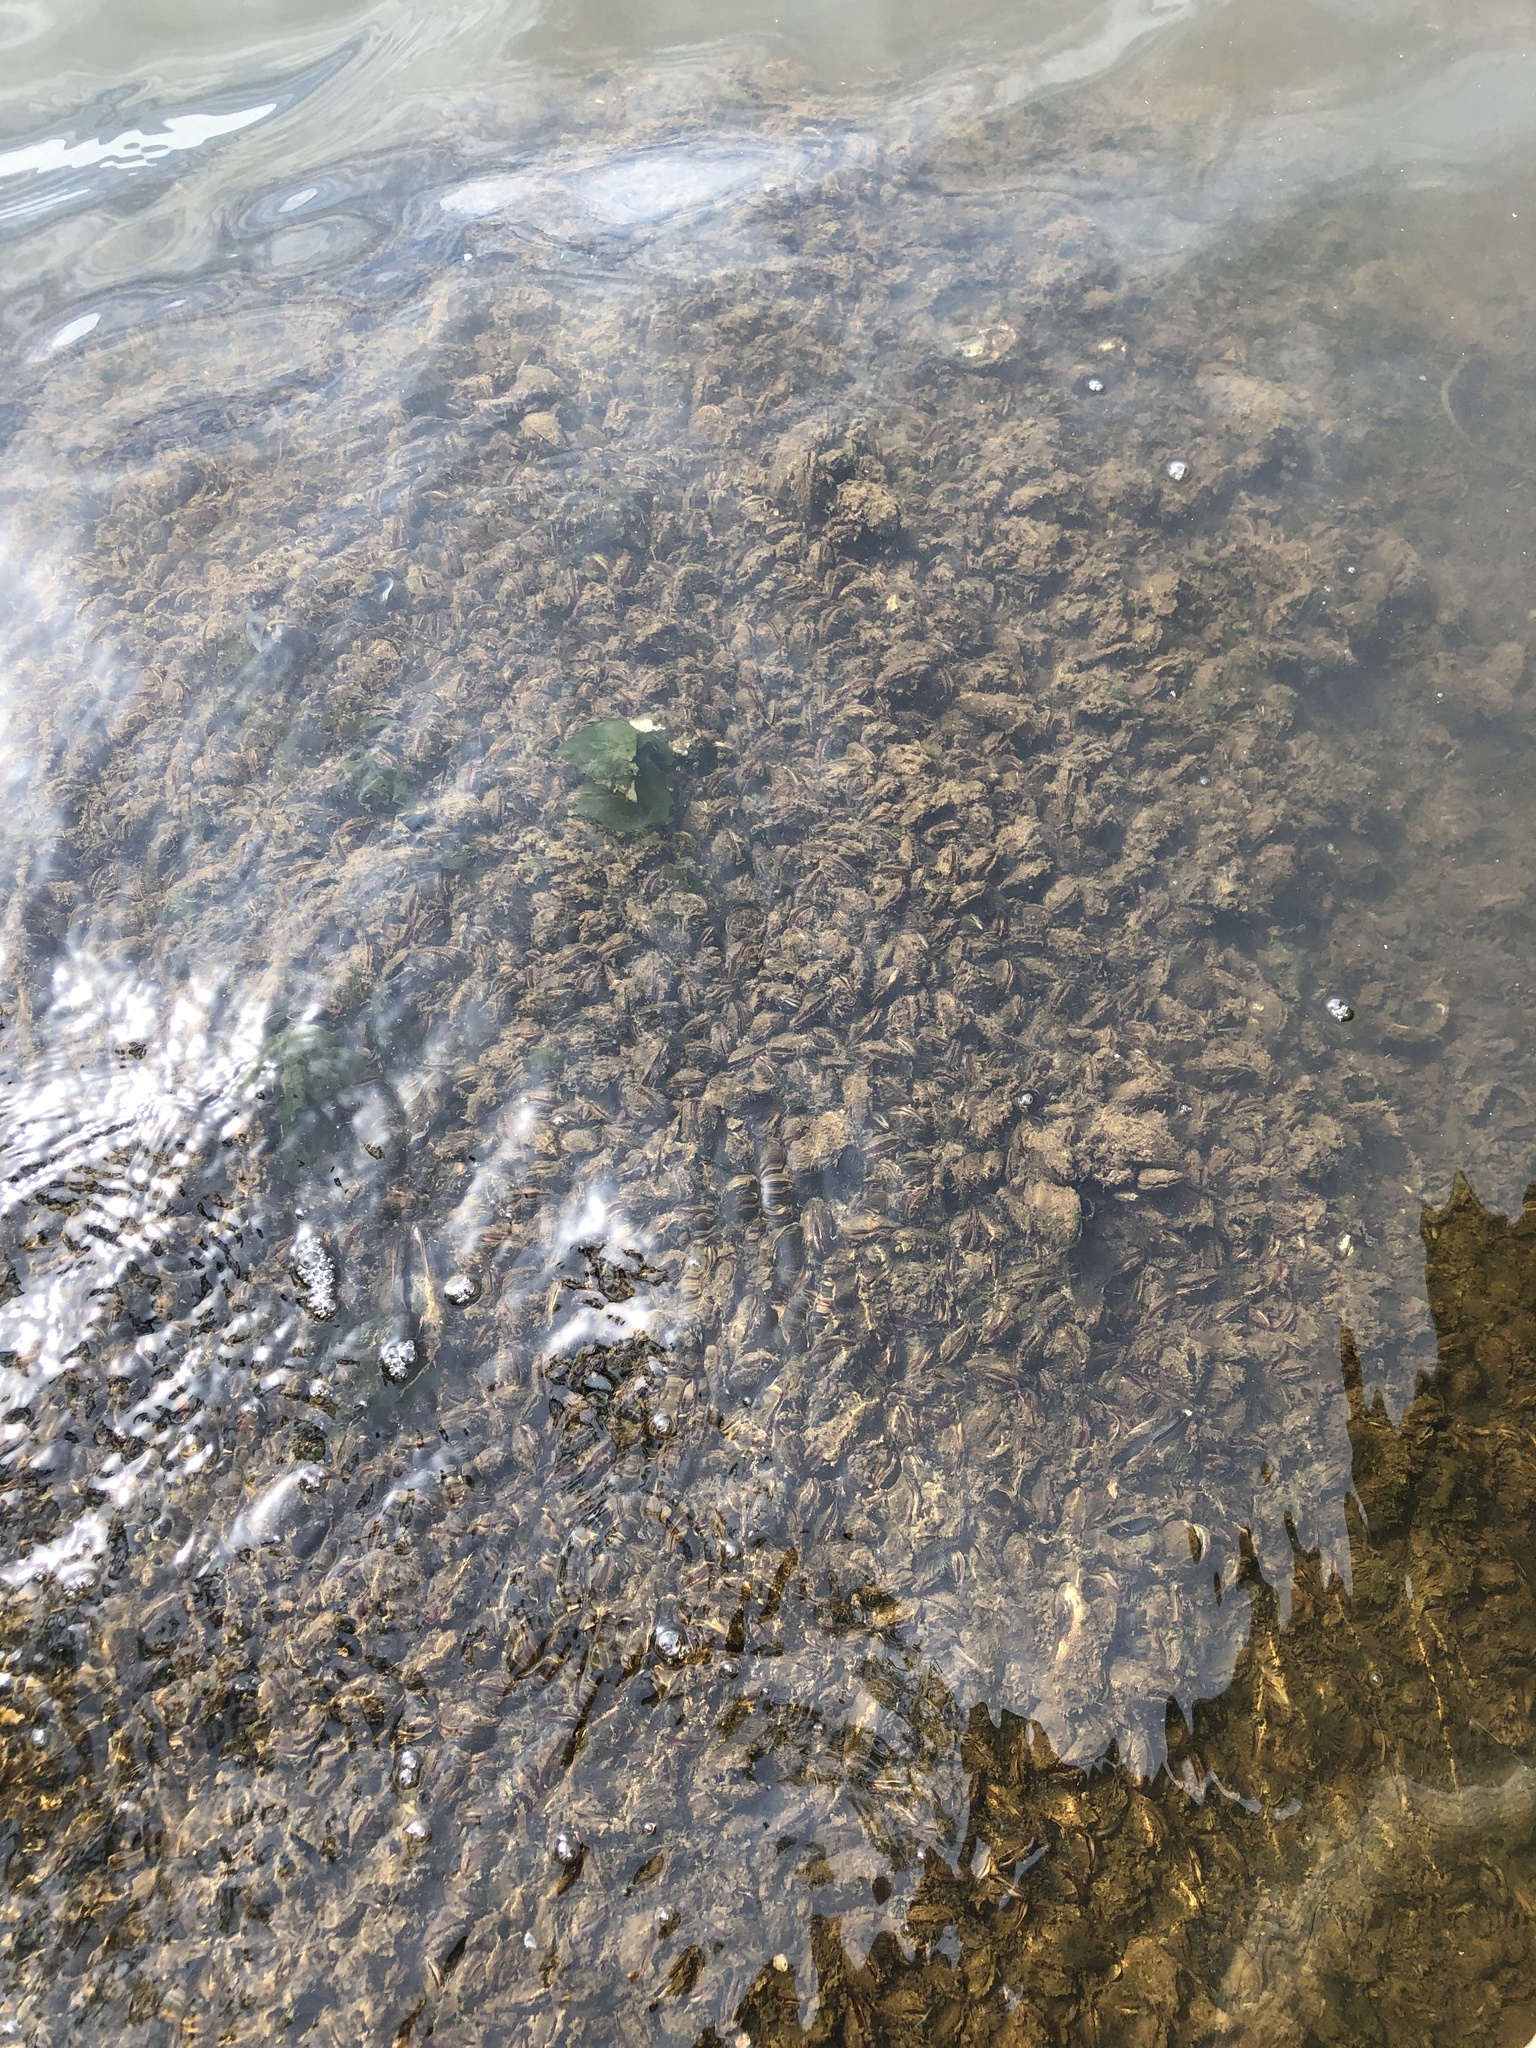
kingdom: Animalia
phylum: Mollusca
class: Bivalvia
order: Mytilida
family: Mytilidae
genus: Geukensia
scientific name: Geukensia demissa
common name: Ribbed mussel
